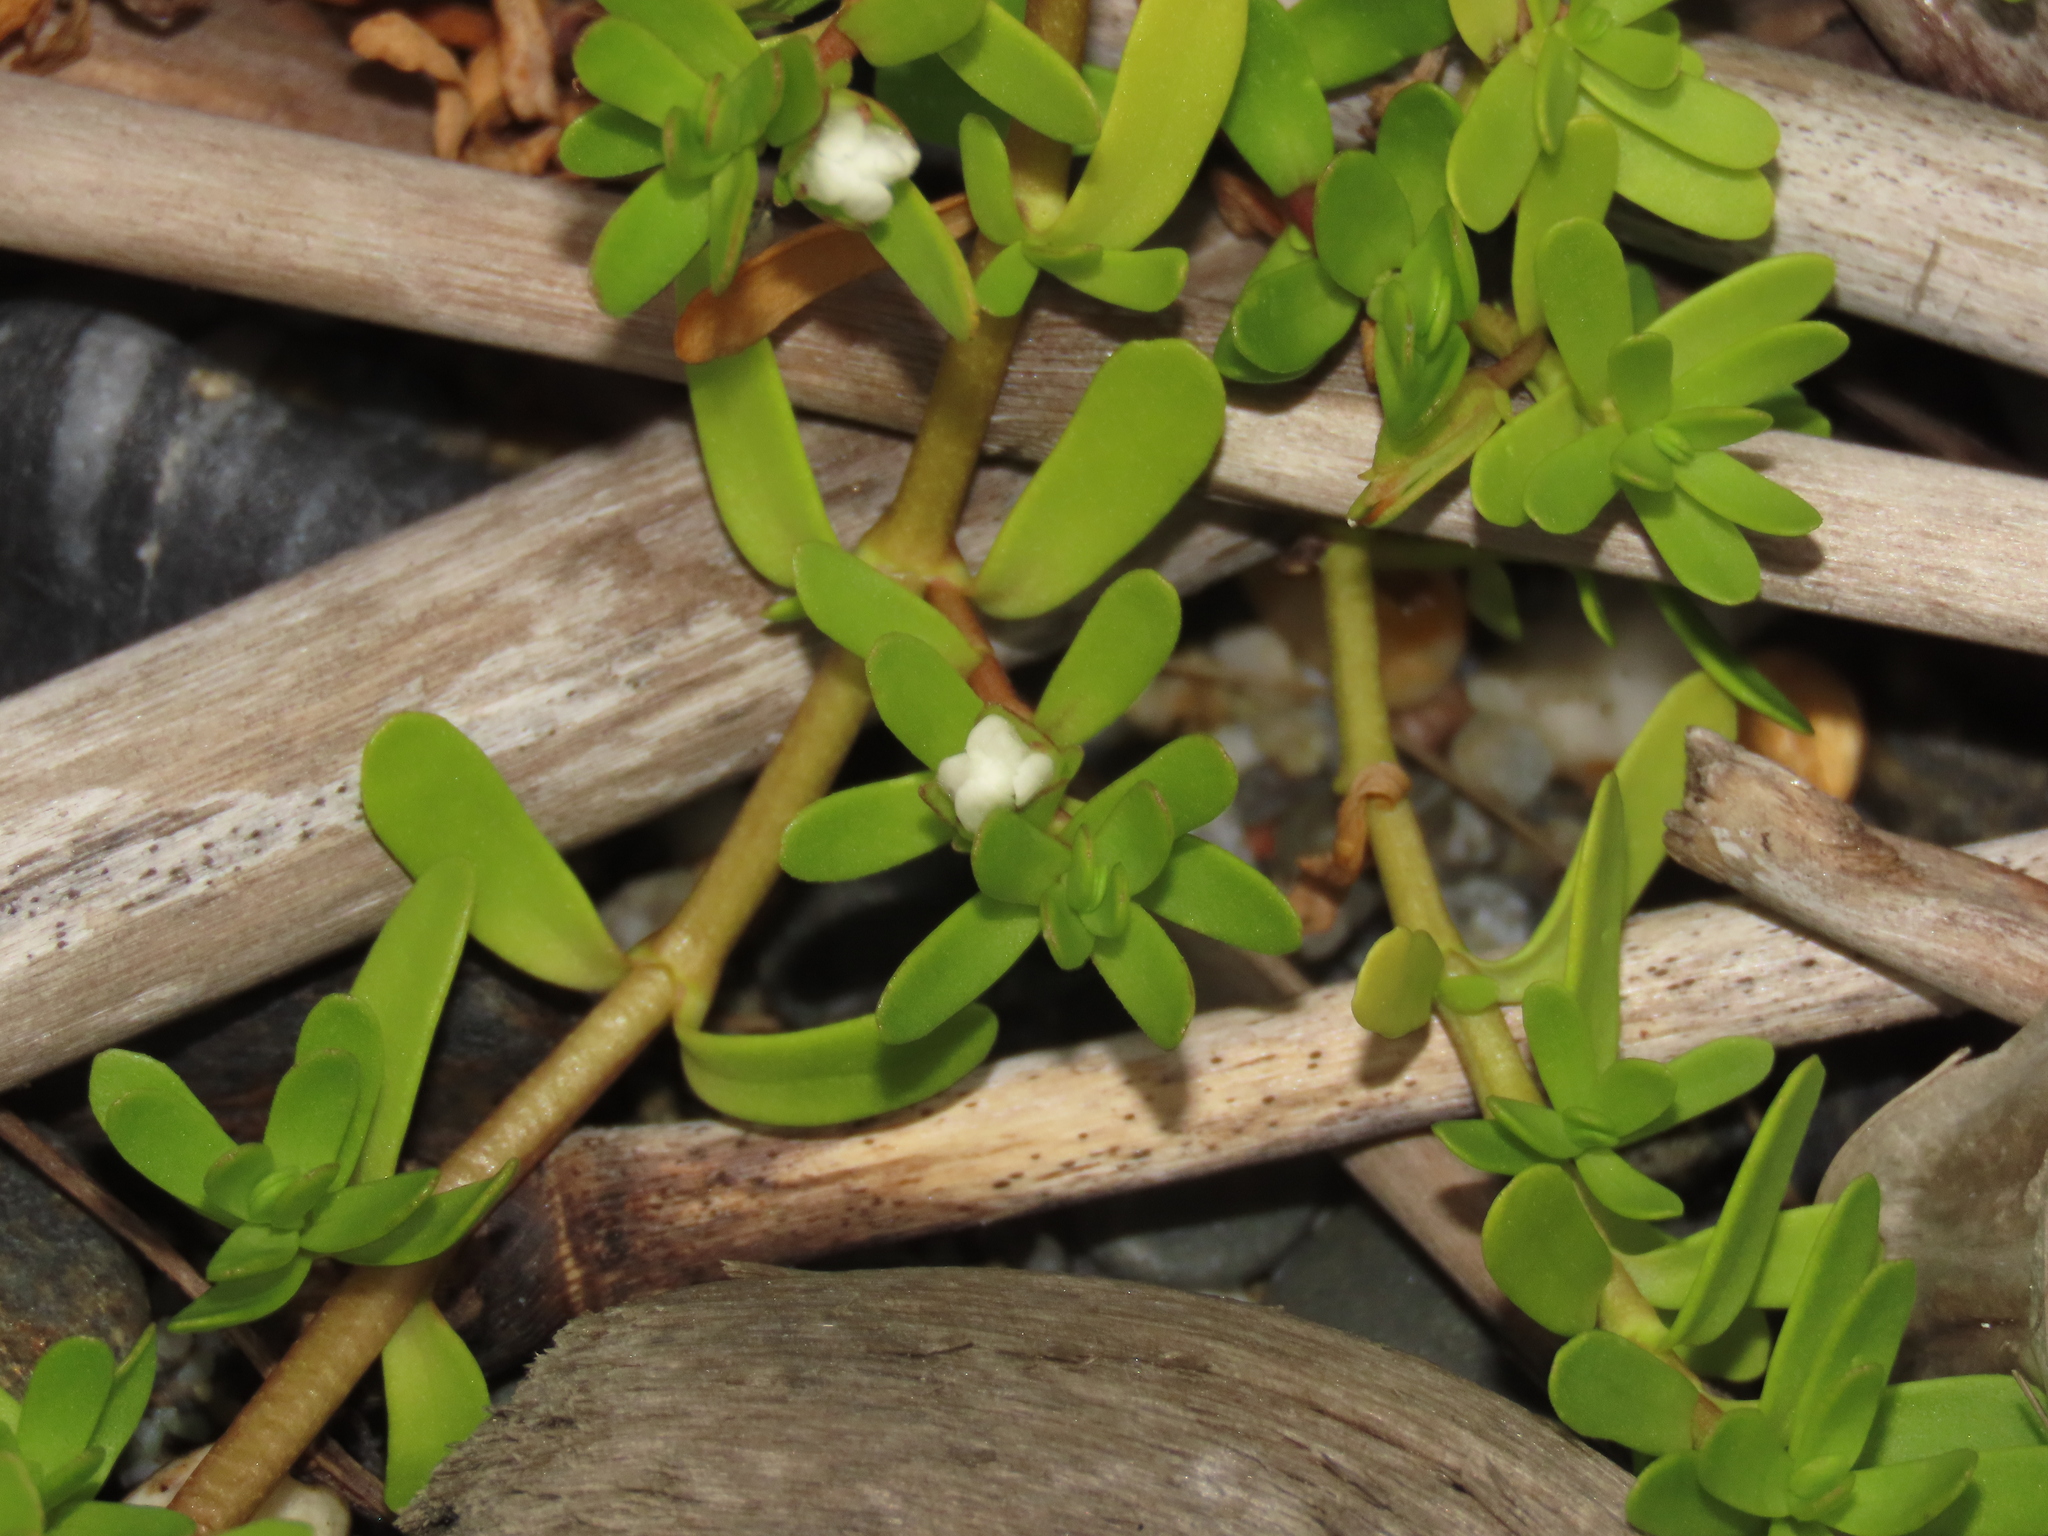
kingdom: Plantae
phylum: Tracheophyta
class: Magnoliopsida
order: Lamiales
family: Plantaginaceae
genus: Bacopa
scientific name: Bacopa monnieri
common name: Indian-pennywort
